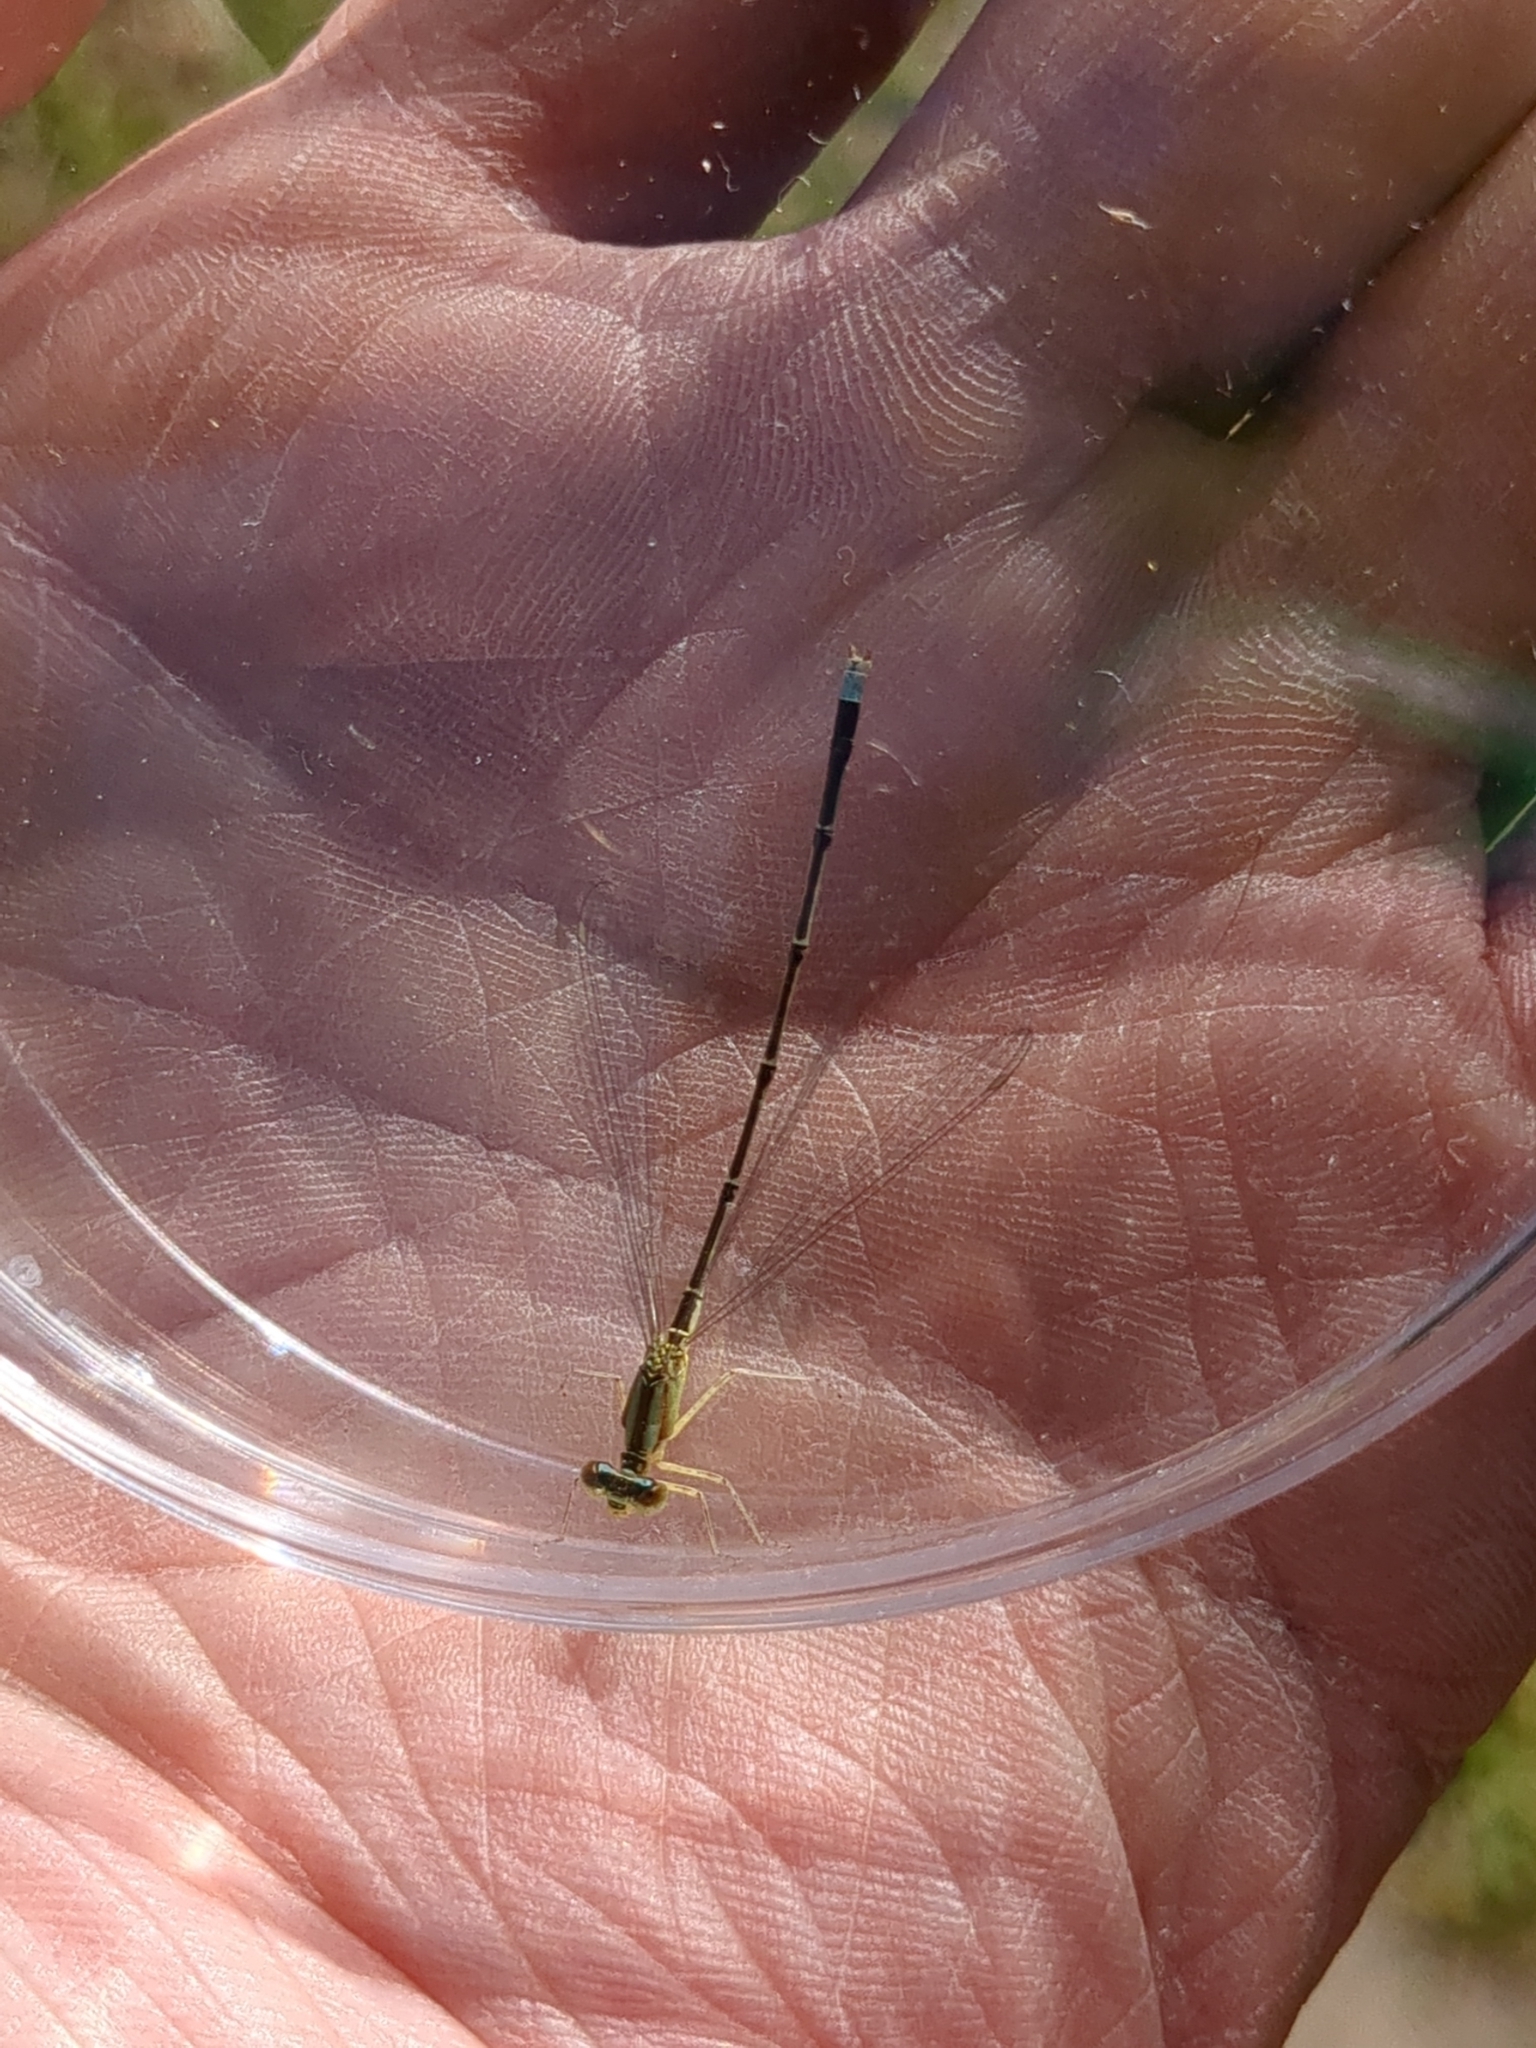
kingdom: Animalia
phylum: Arthropoda
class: Insecta
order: Odonata
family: Coenagrionidae
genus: Enallagma
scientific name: Enallagma vesperum
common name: Vesper bluet
